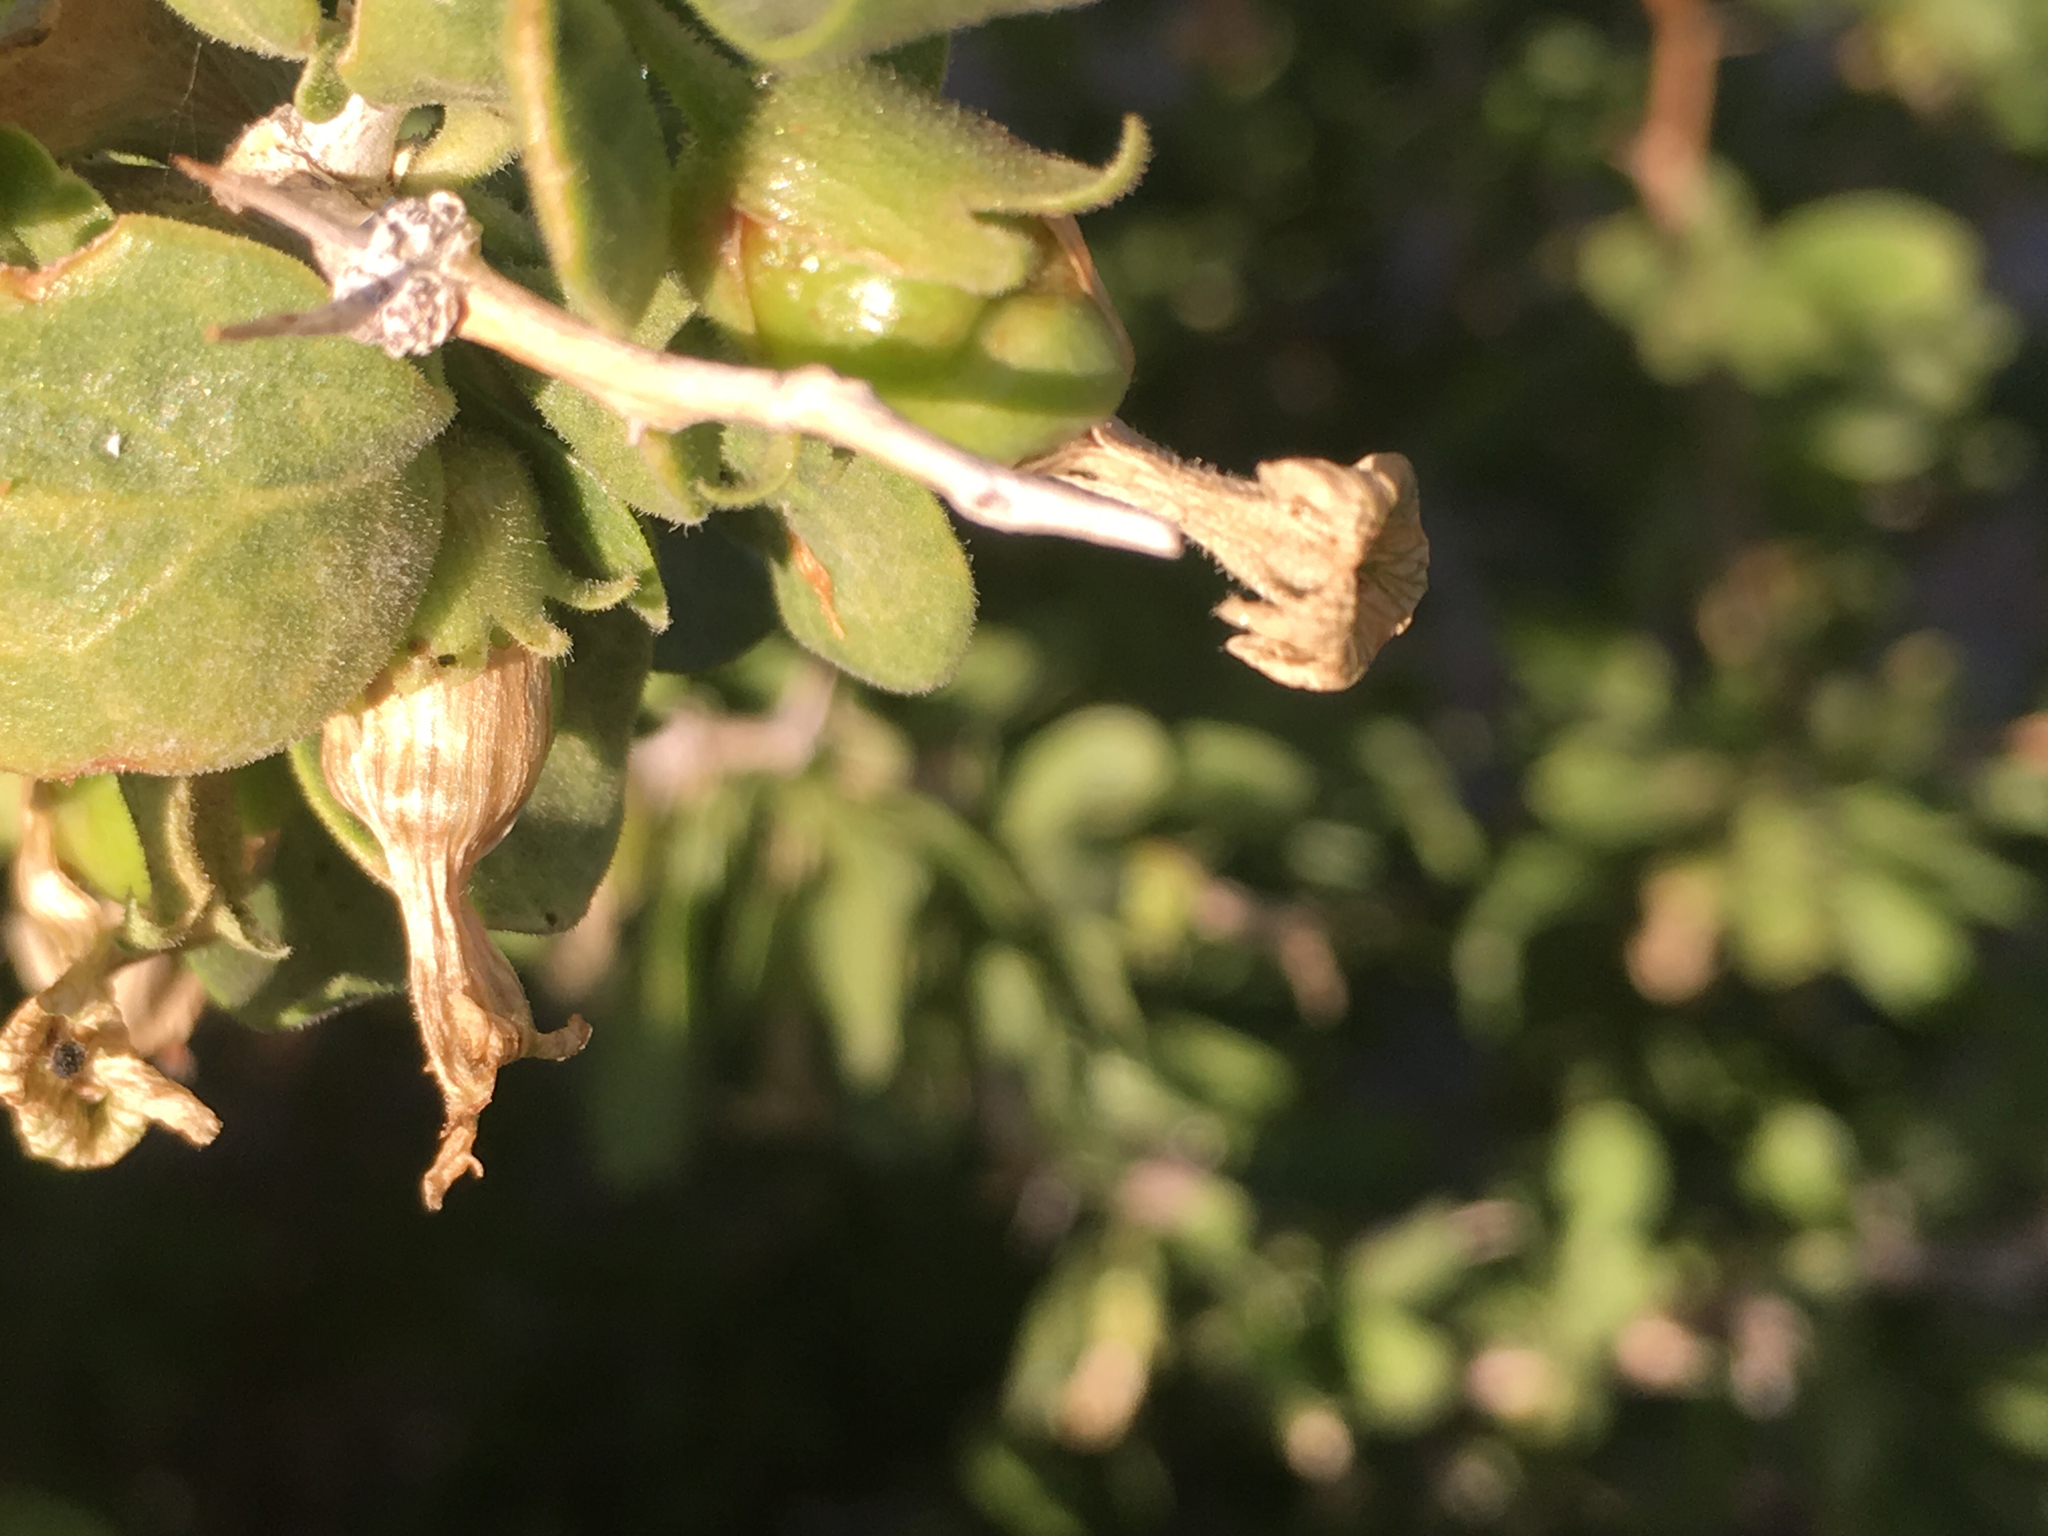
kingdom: Plantae
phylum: Tracheophyta
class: Magnoliopsida
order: Solanales
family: Solanaceae
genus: Lycium
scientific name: Lycium cooperi
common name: Peachthorn
